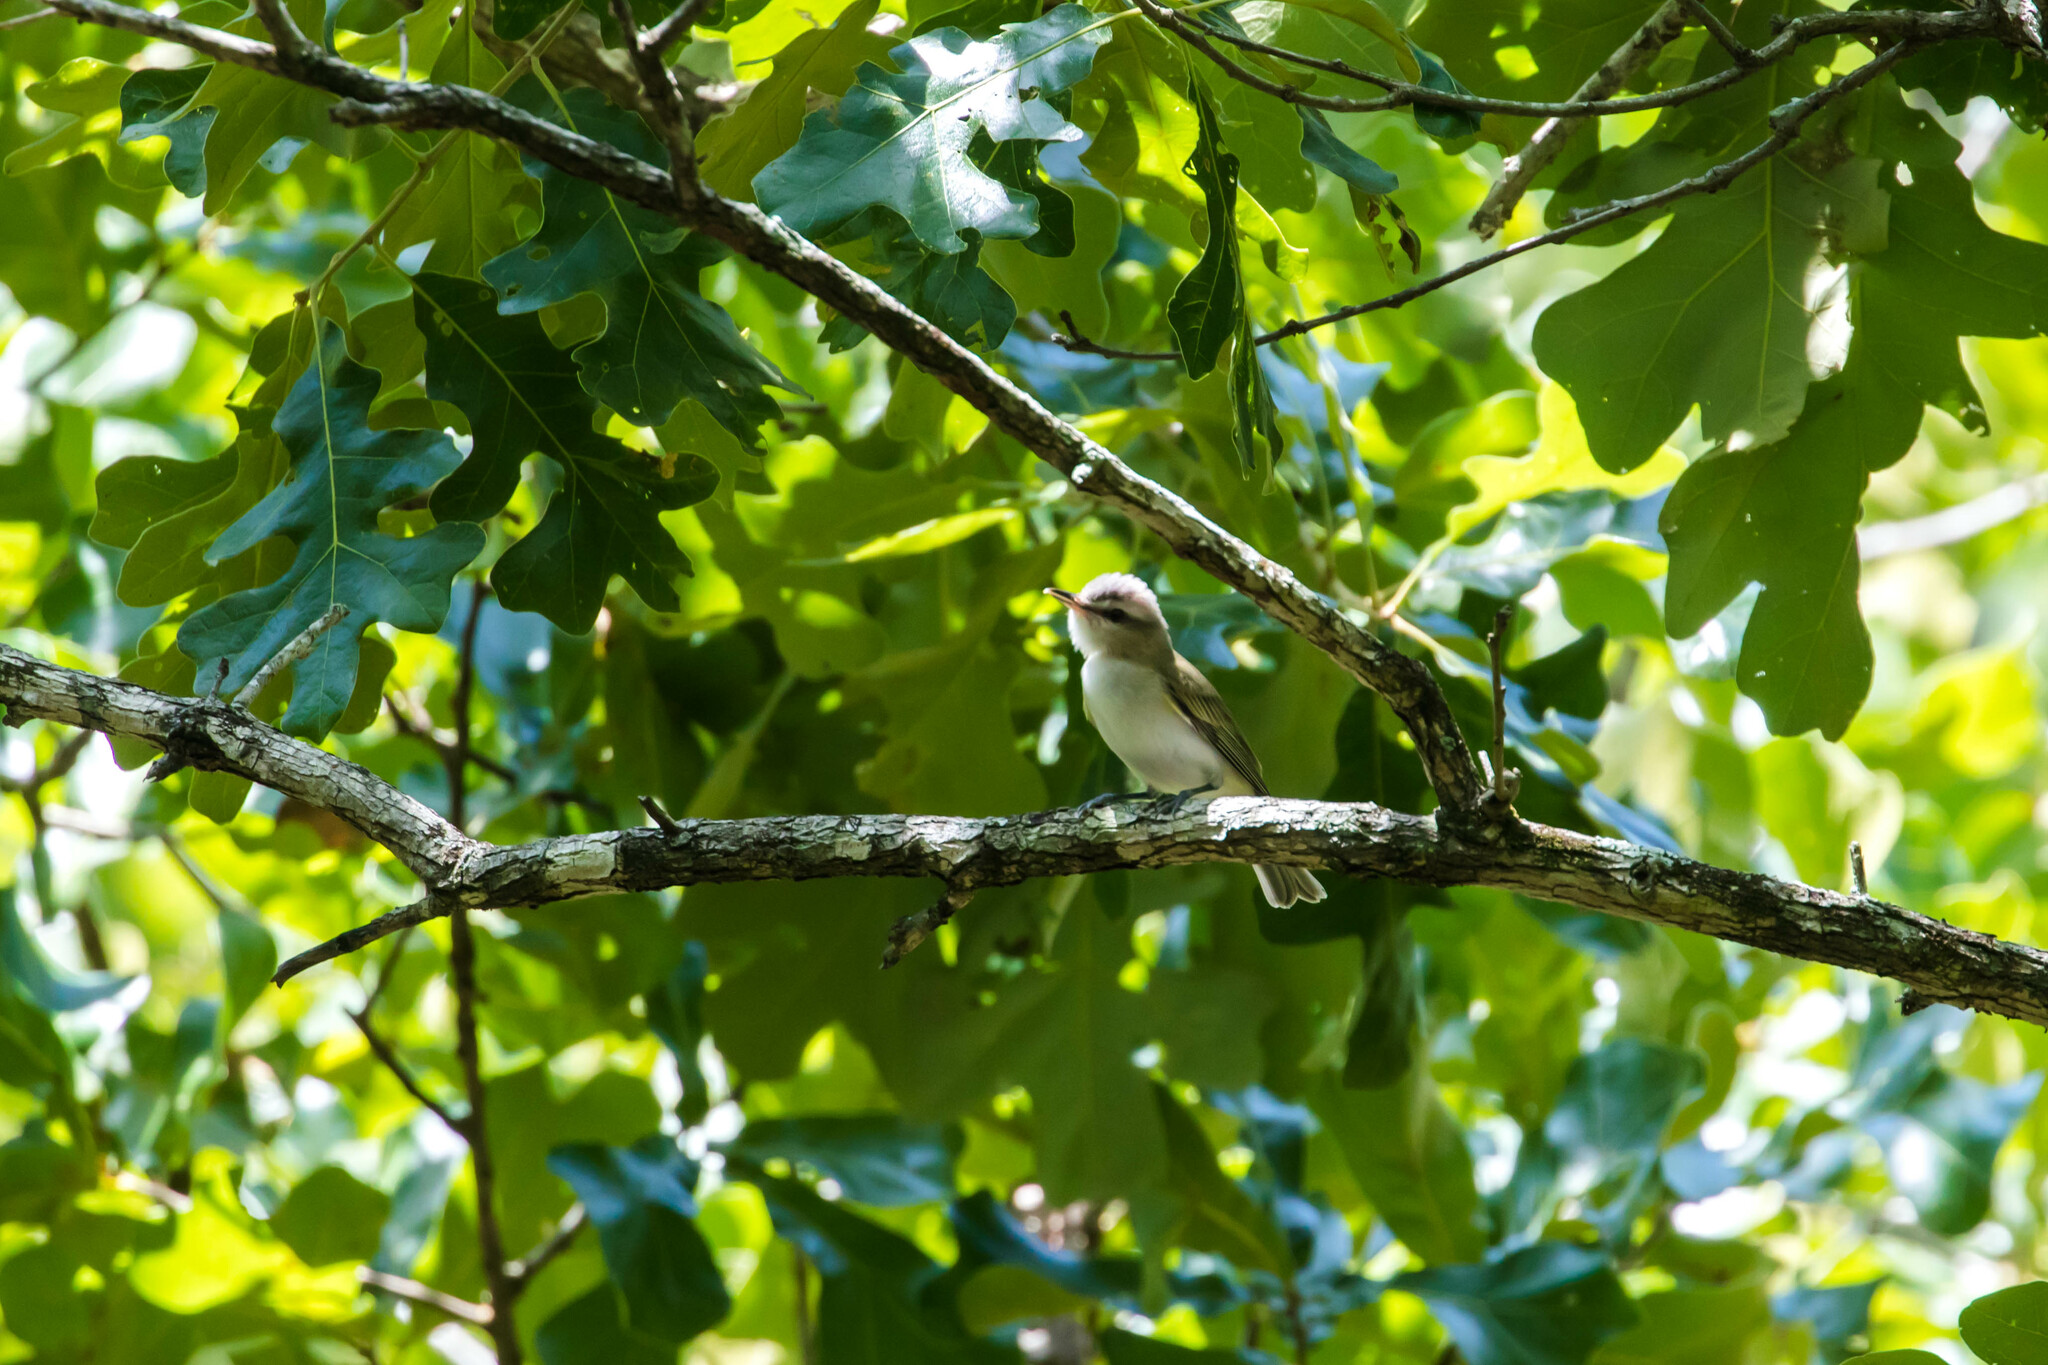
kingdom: Animalia
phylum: Chordata
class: Aves
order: Passeriformes
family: Vireonidae
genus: Vireo
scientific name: Vireo olivaceus
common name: Red-eyed vireo
